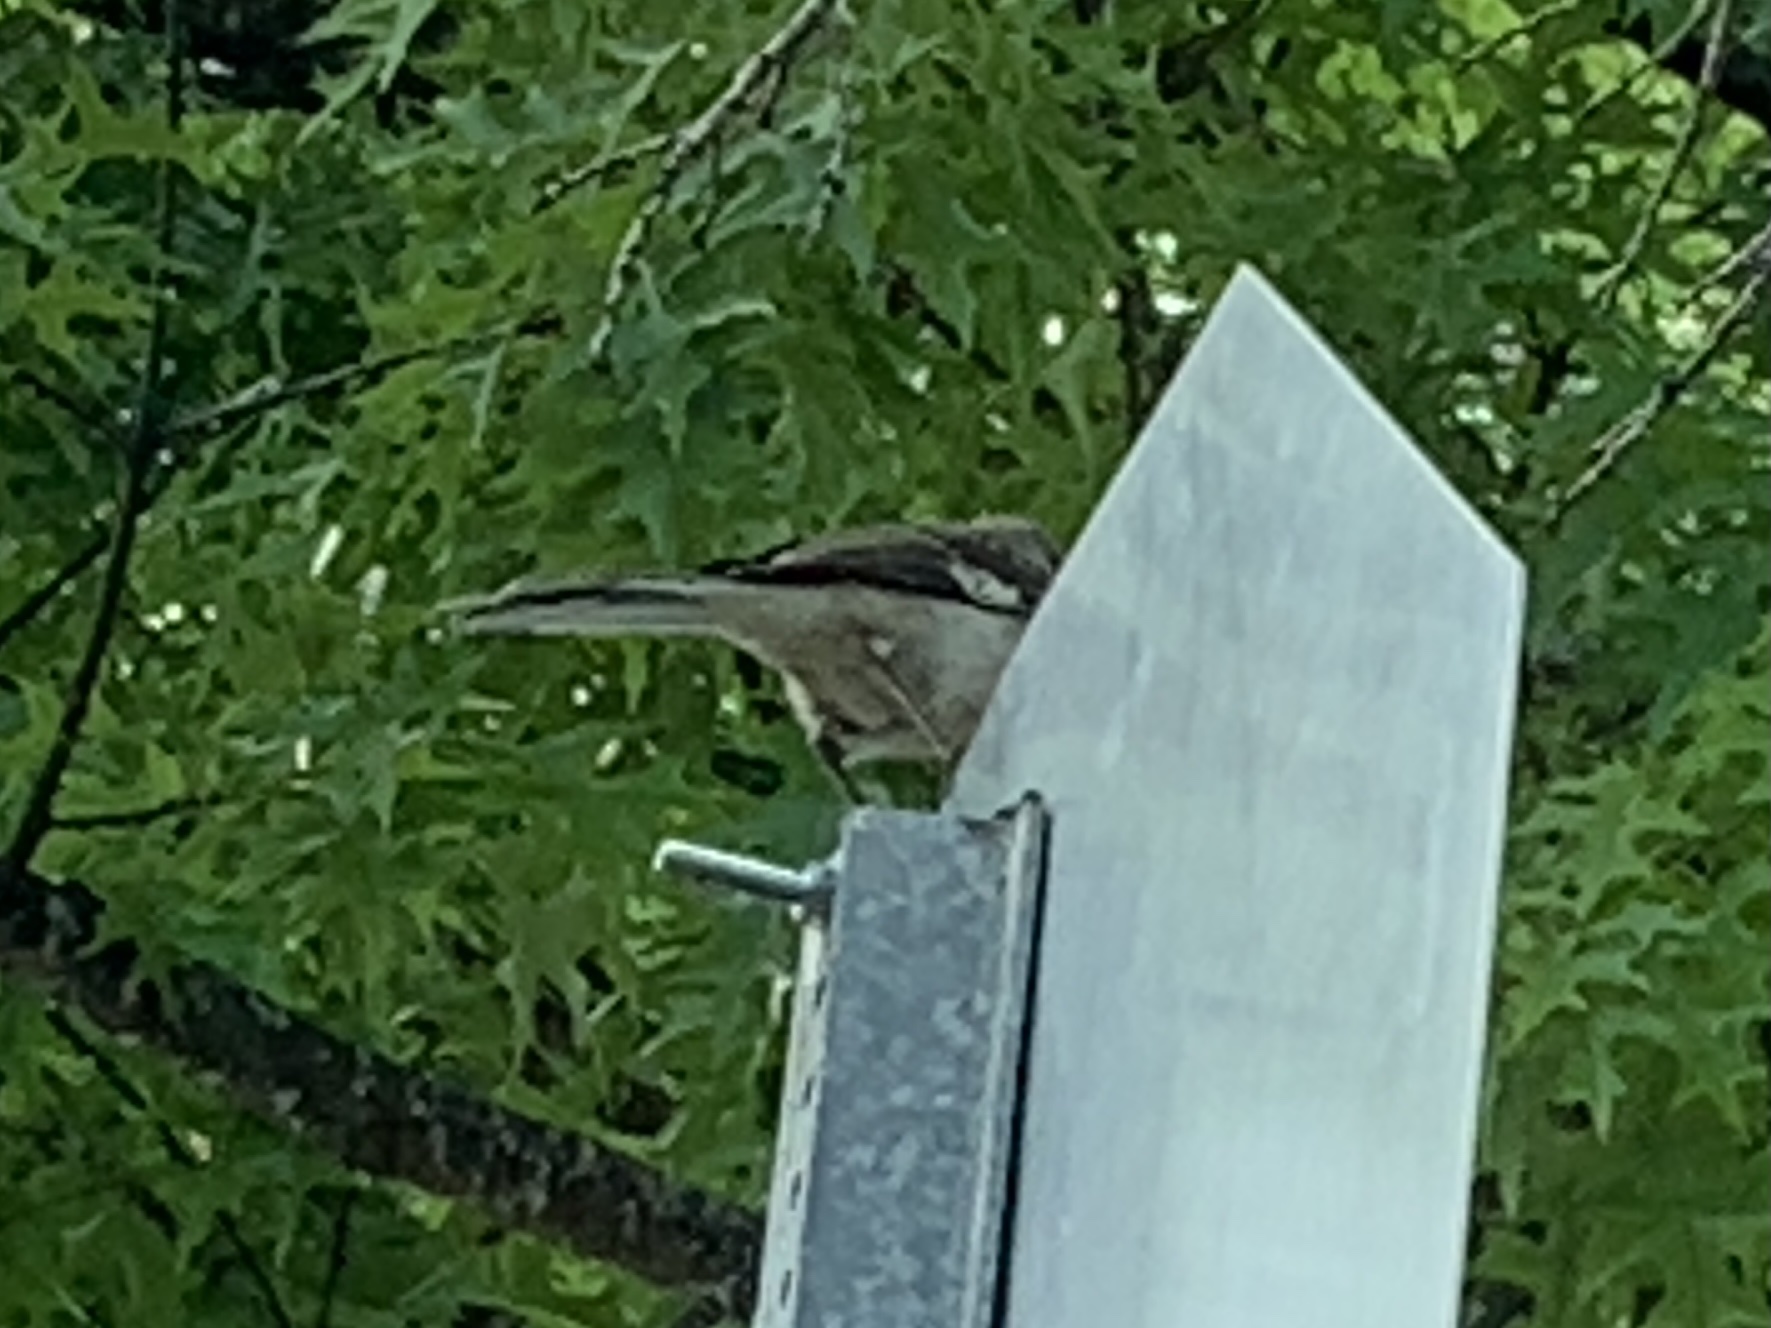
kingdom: Animalia
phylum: Chordata
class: Aves
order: Passeriformes
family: Mimidae
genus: Mimus
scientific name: Mimus polyglottos
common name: Northern mockingbird
